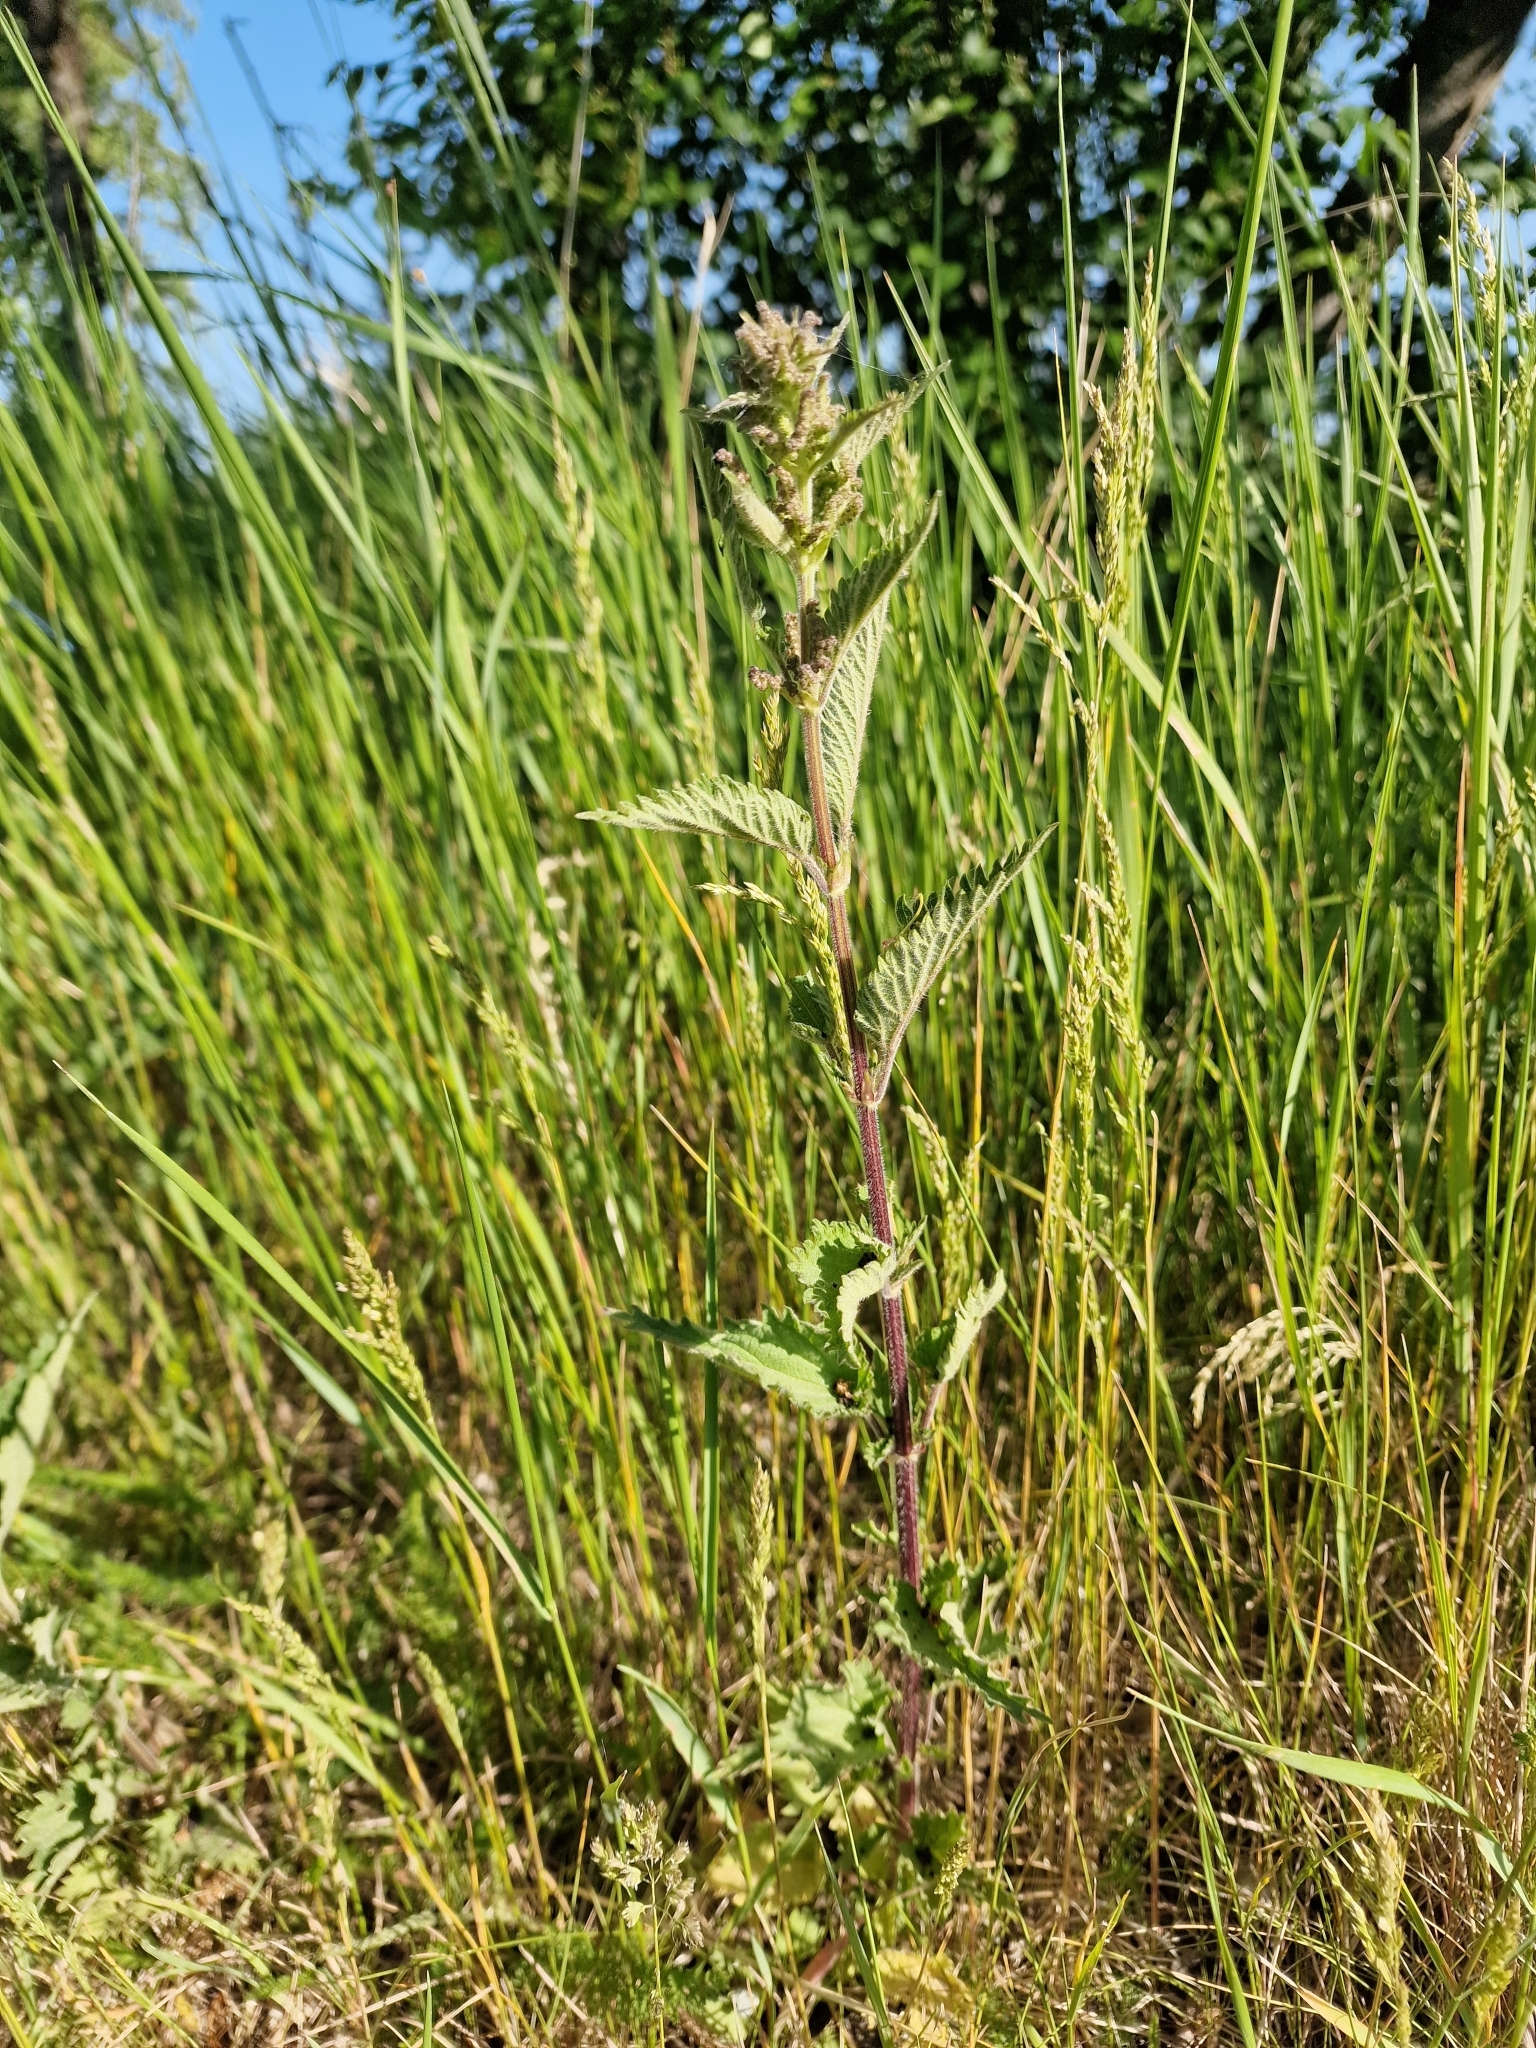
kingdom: Plantae
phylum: Tracheophyta
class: Magnoliopsida
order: Rosales
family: Urticaceae
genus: Urtica
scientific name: Urtica dioica
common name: Common nettle
